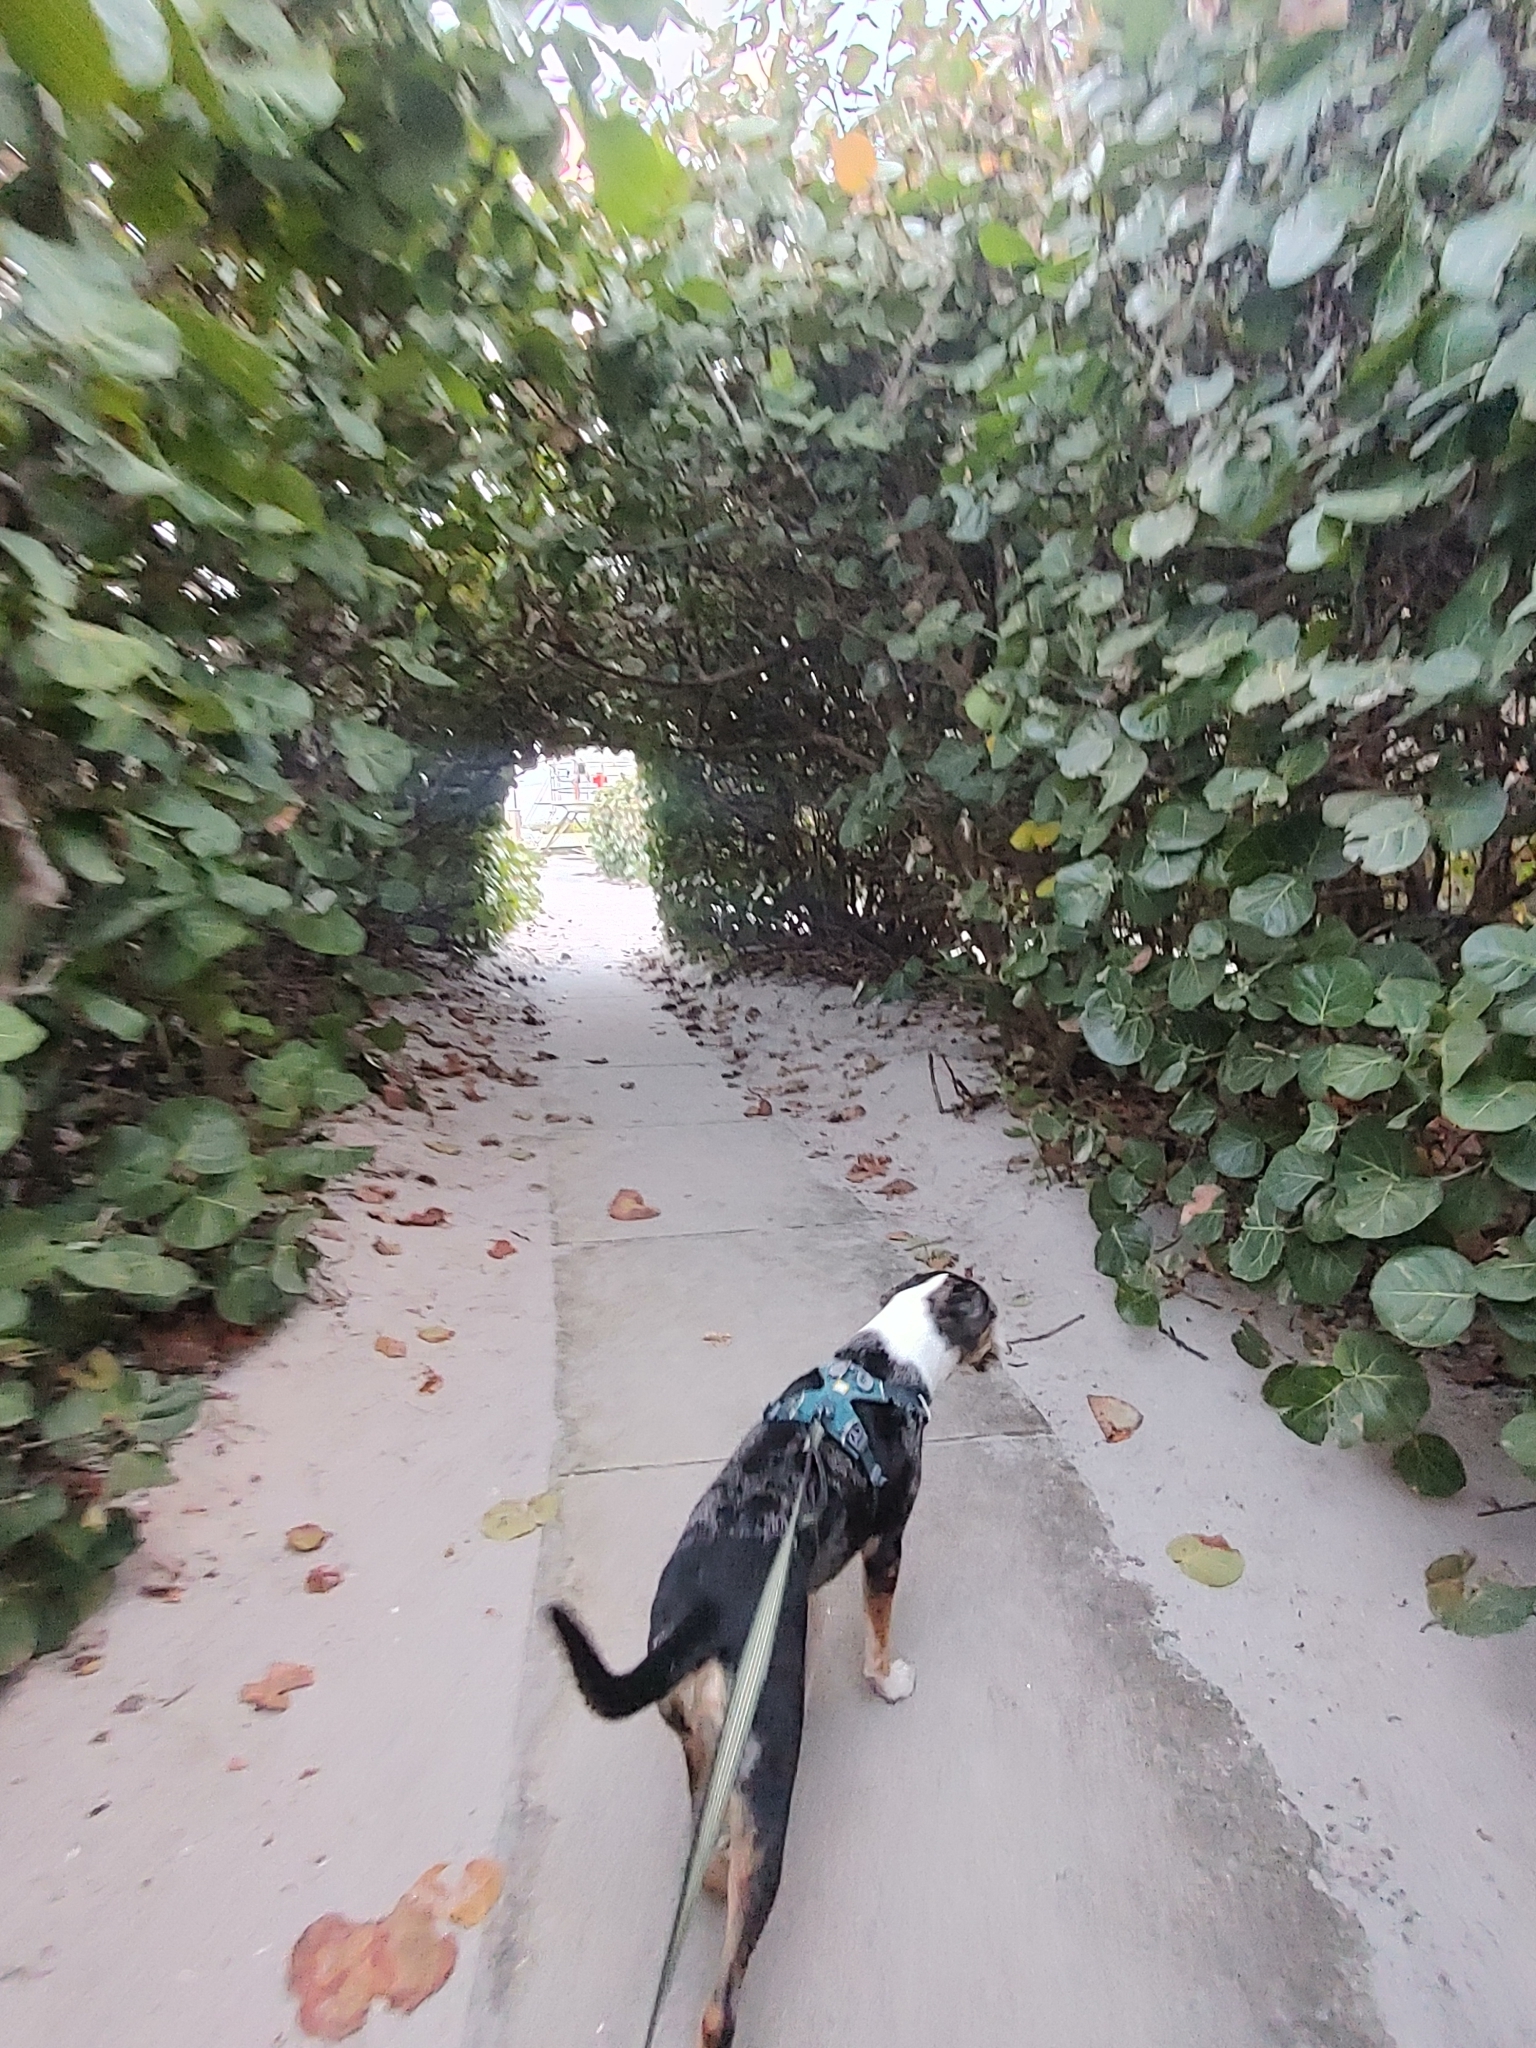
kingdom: Plantae
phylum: Tracheophyta
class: Magnoliopsida
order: Caryophyllales
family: Polygonaceae
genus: Coccoloba
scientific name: Coccoloba uvifera
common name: Seagrape
